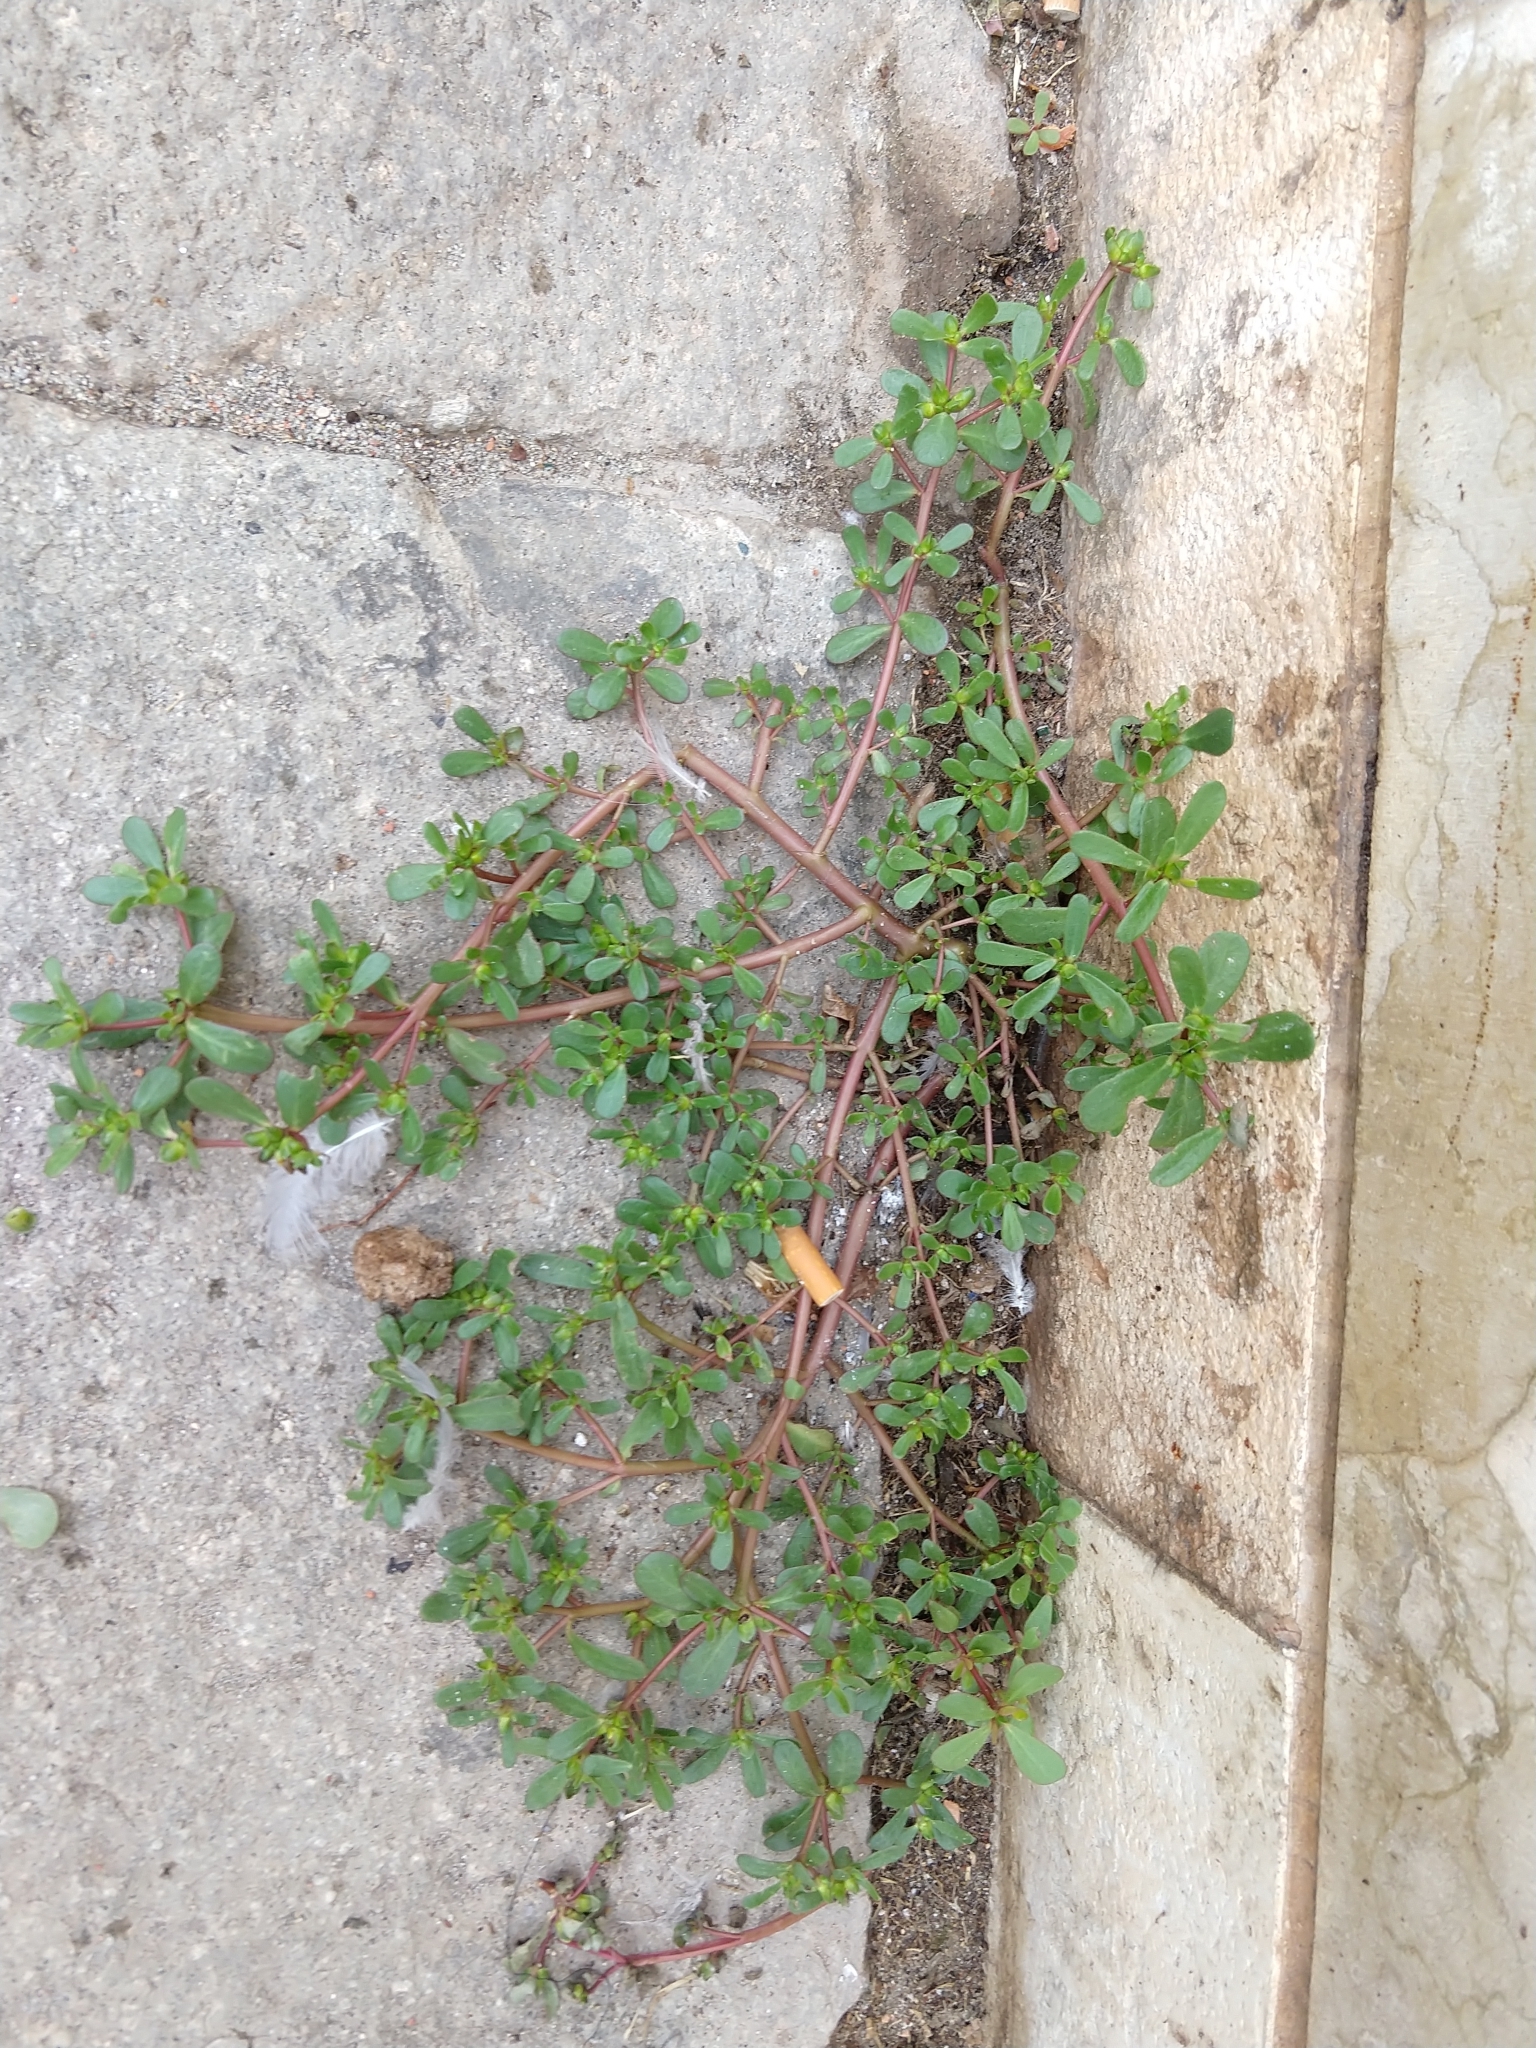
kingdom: Plantae
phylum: Tracheophyta
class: Magnoliopsida
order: Caryophyllales
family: Portulacaceae
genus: Portulaca
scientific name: Portulaca oleracea
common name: Common purslane
